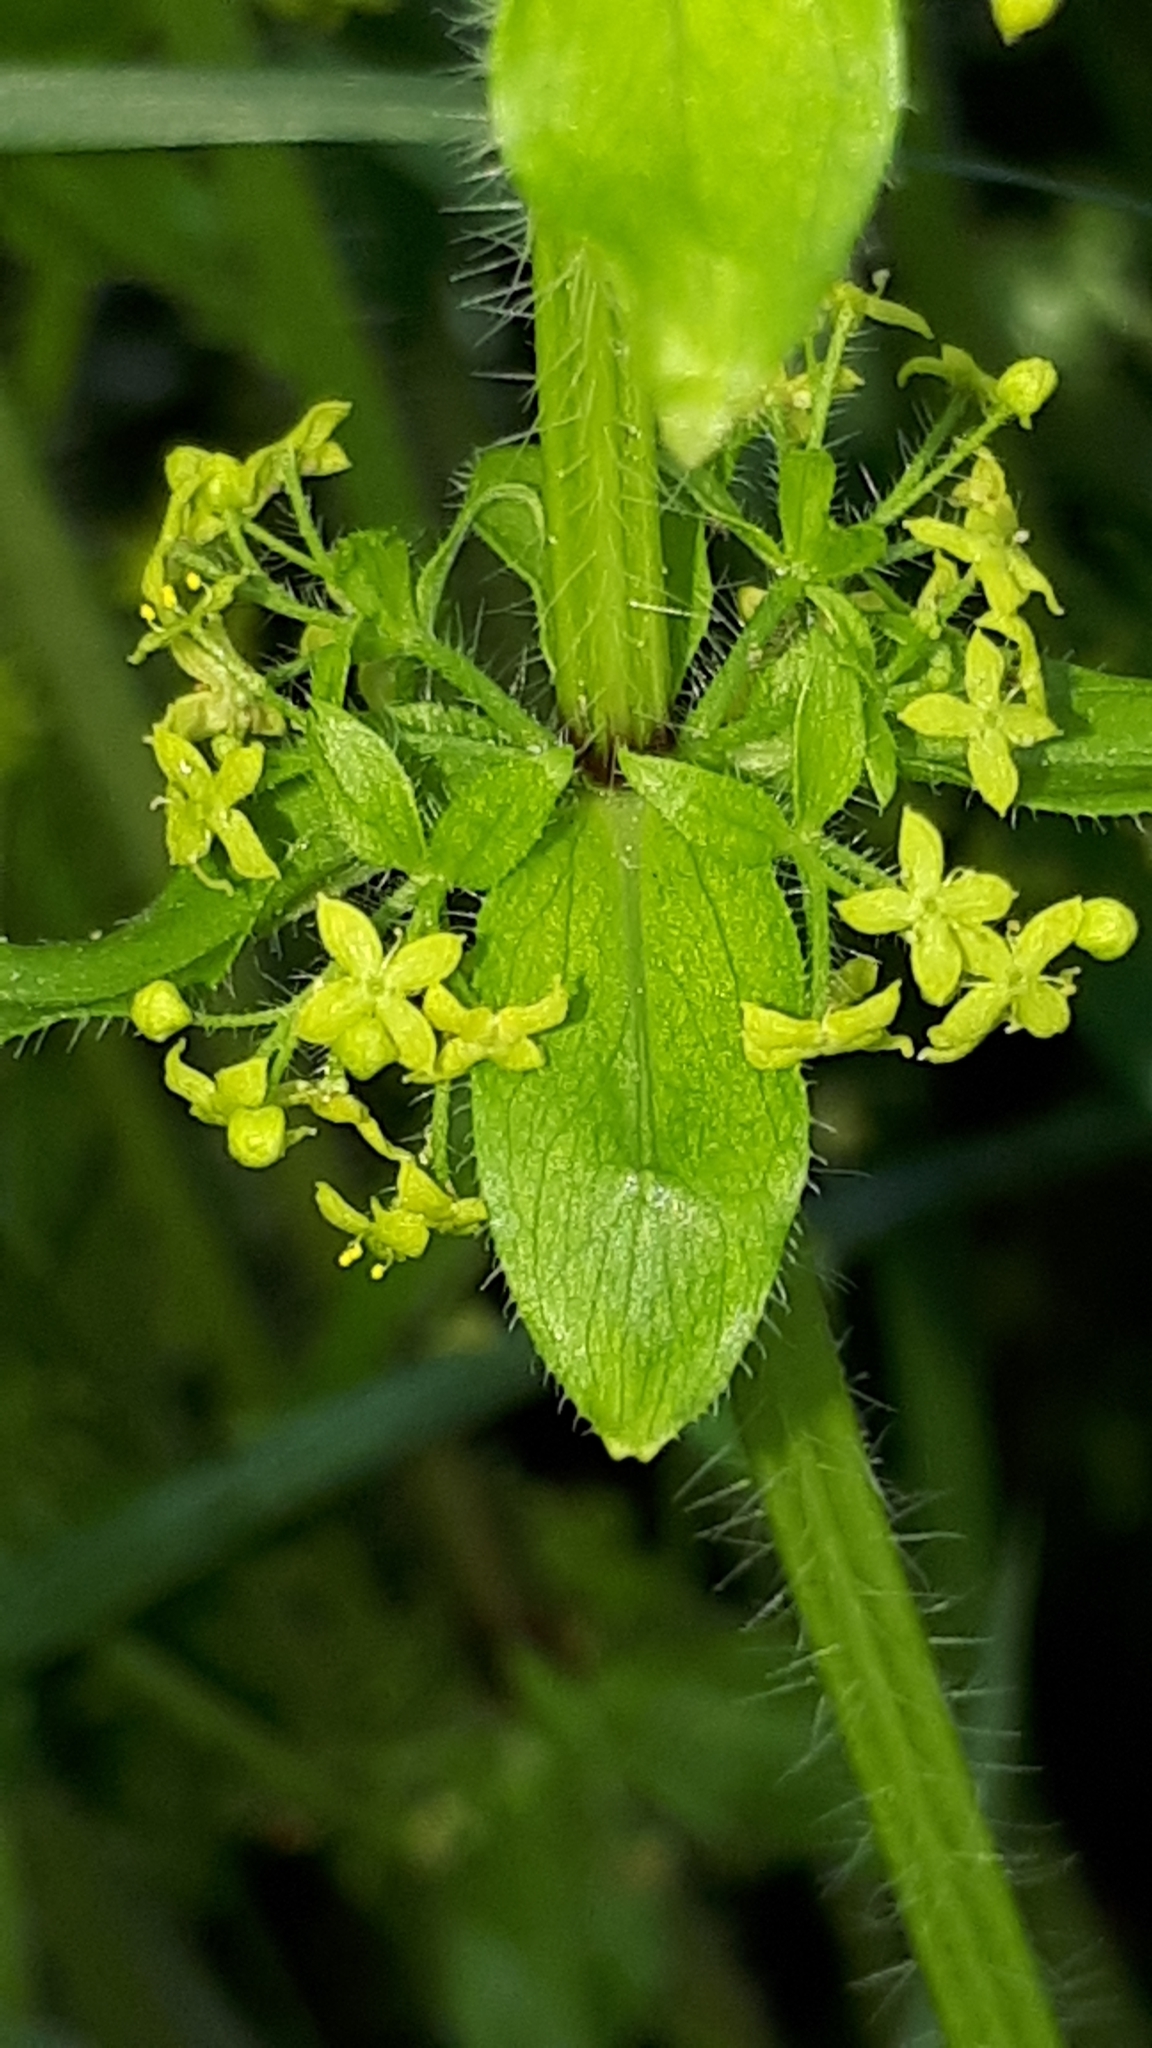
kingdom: Plantae
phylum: Tracheophyta
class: Magnoliopsida
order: Gentianales
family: Rubiaceae
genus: Cruciata
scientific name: Cruciata laevipes
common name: Crosswort
